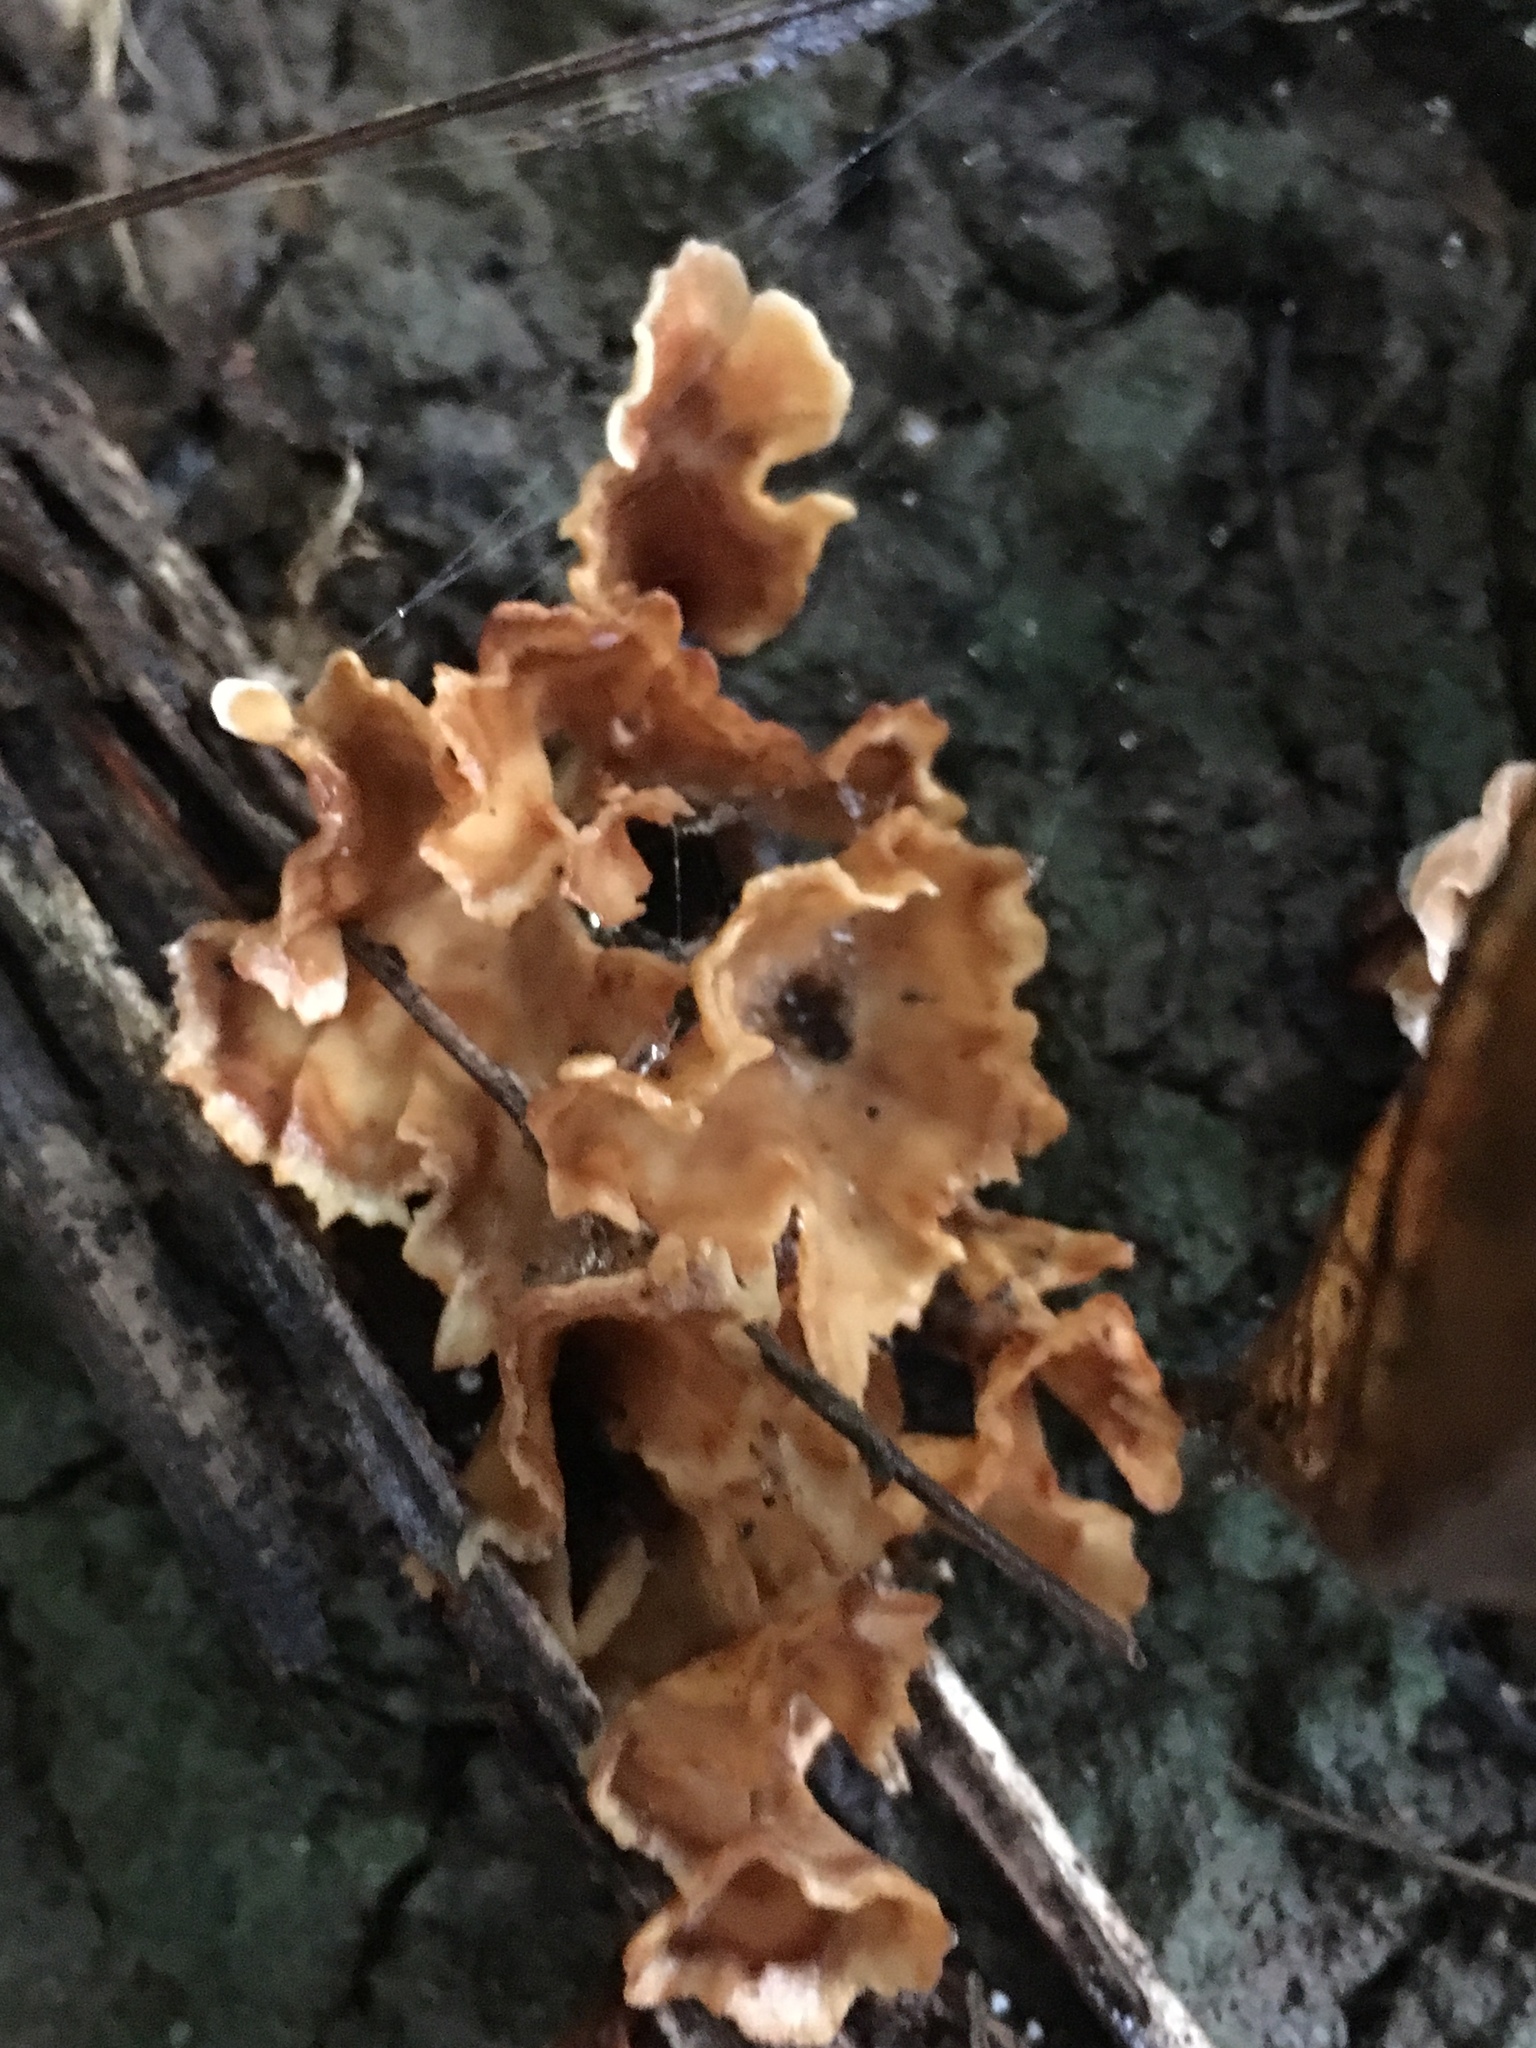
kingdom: Fungi
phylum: Basidiomycota
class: Agaricomycetes
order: Polyporales
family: Podoscyphaceae
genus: Podoscypha
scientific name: Podoscypha petalodes
